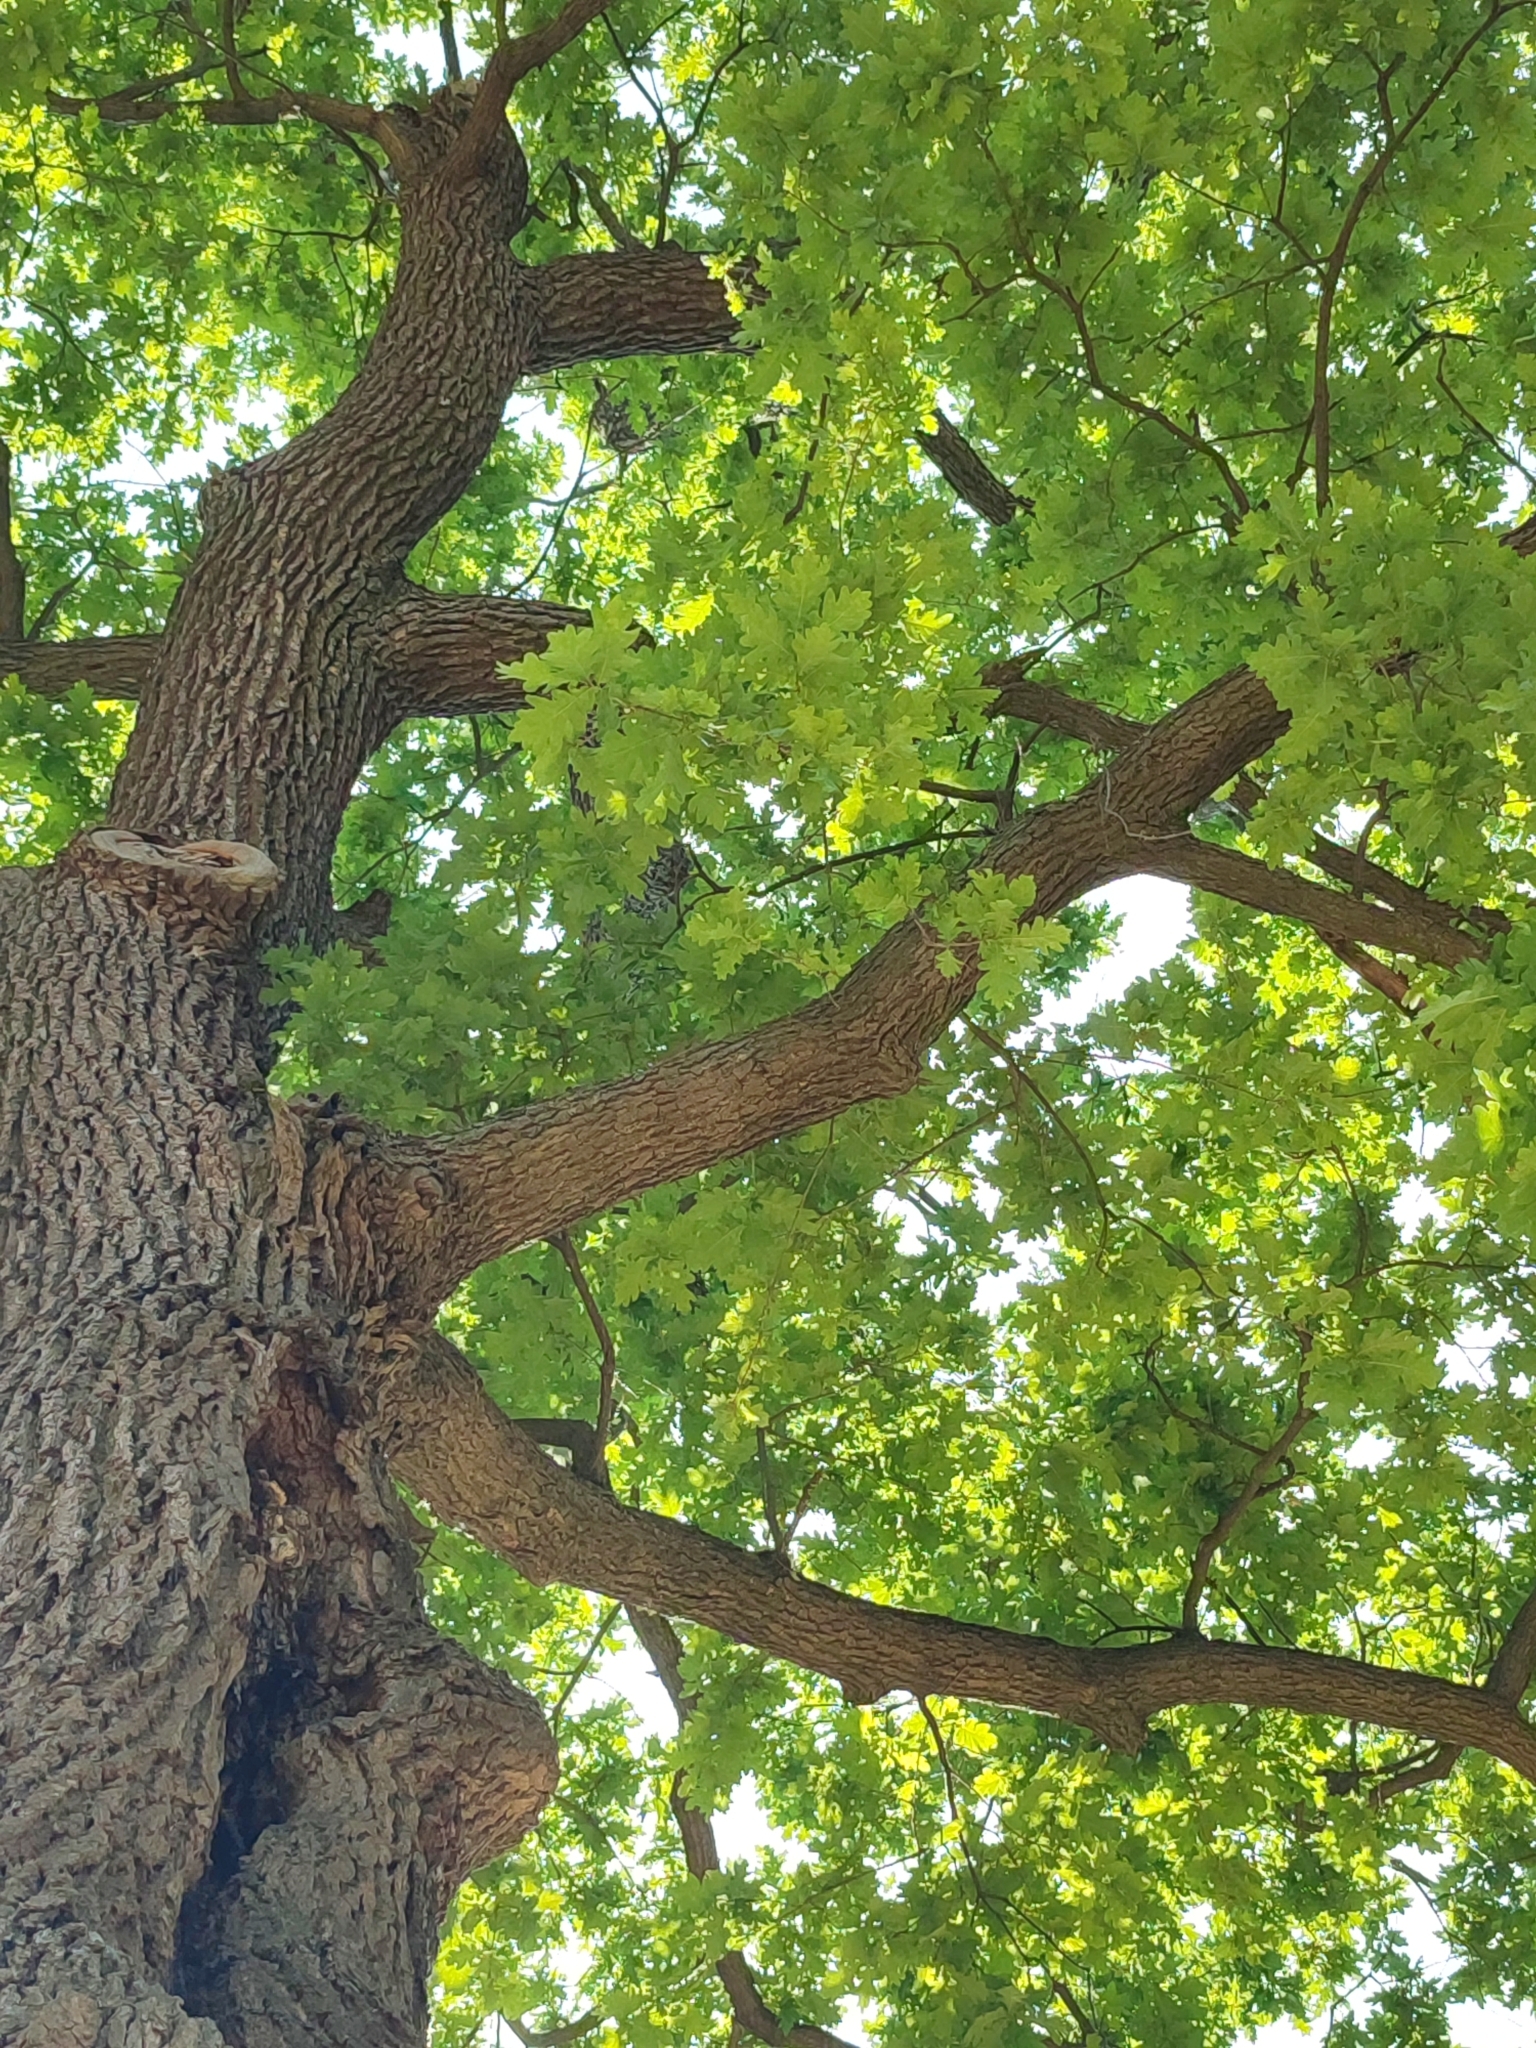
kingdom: Plantae
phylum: Tracheophyta
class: Magnoliopsida
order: Fagales
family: Fagaceae
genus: Quercus
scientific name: Quercus robur
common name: Pedunculate oak
